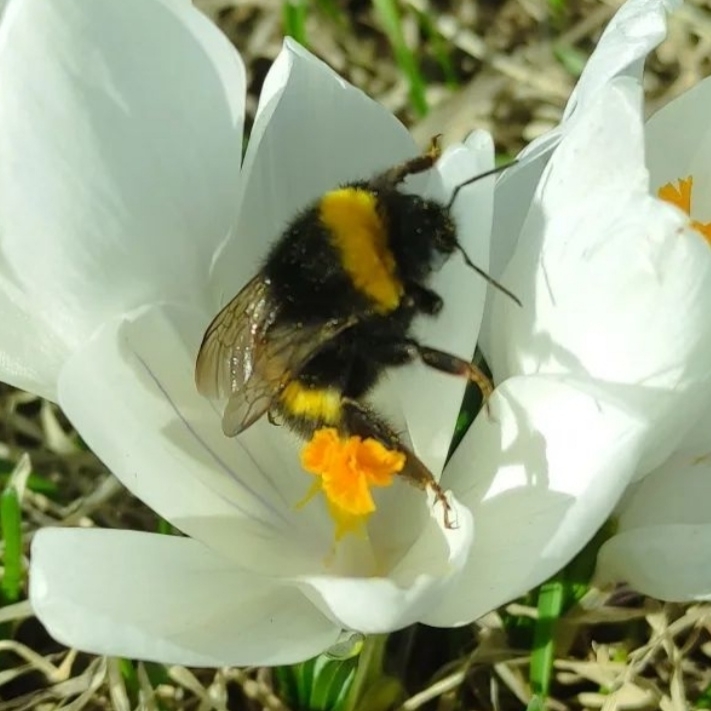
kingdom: Animalia
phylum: Arthropoda
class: Insecta
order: Hymenoptera
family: Apidae
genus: Bombus
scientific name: Bombus
